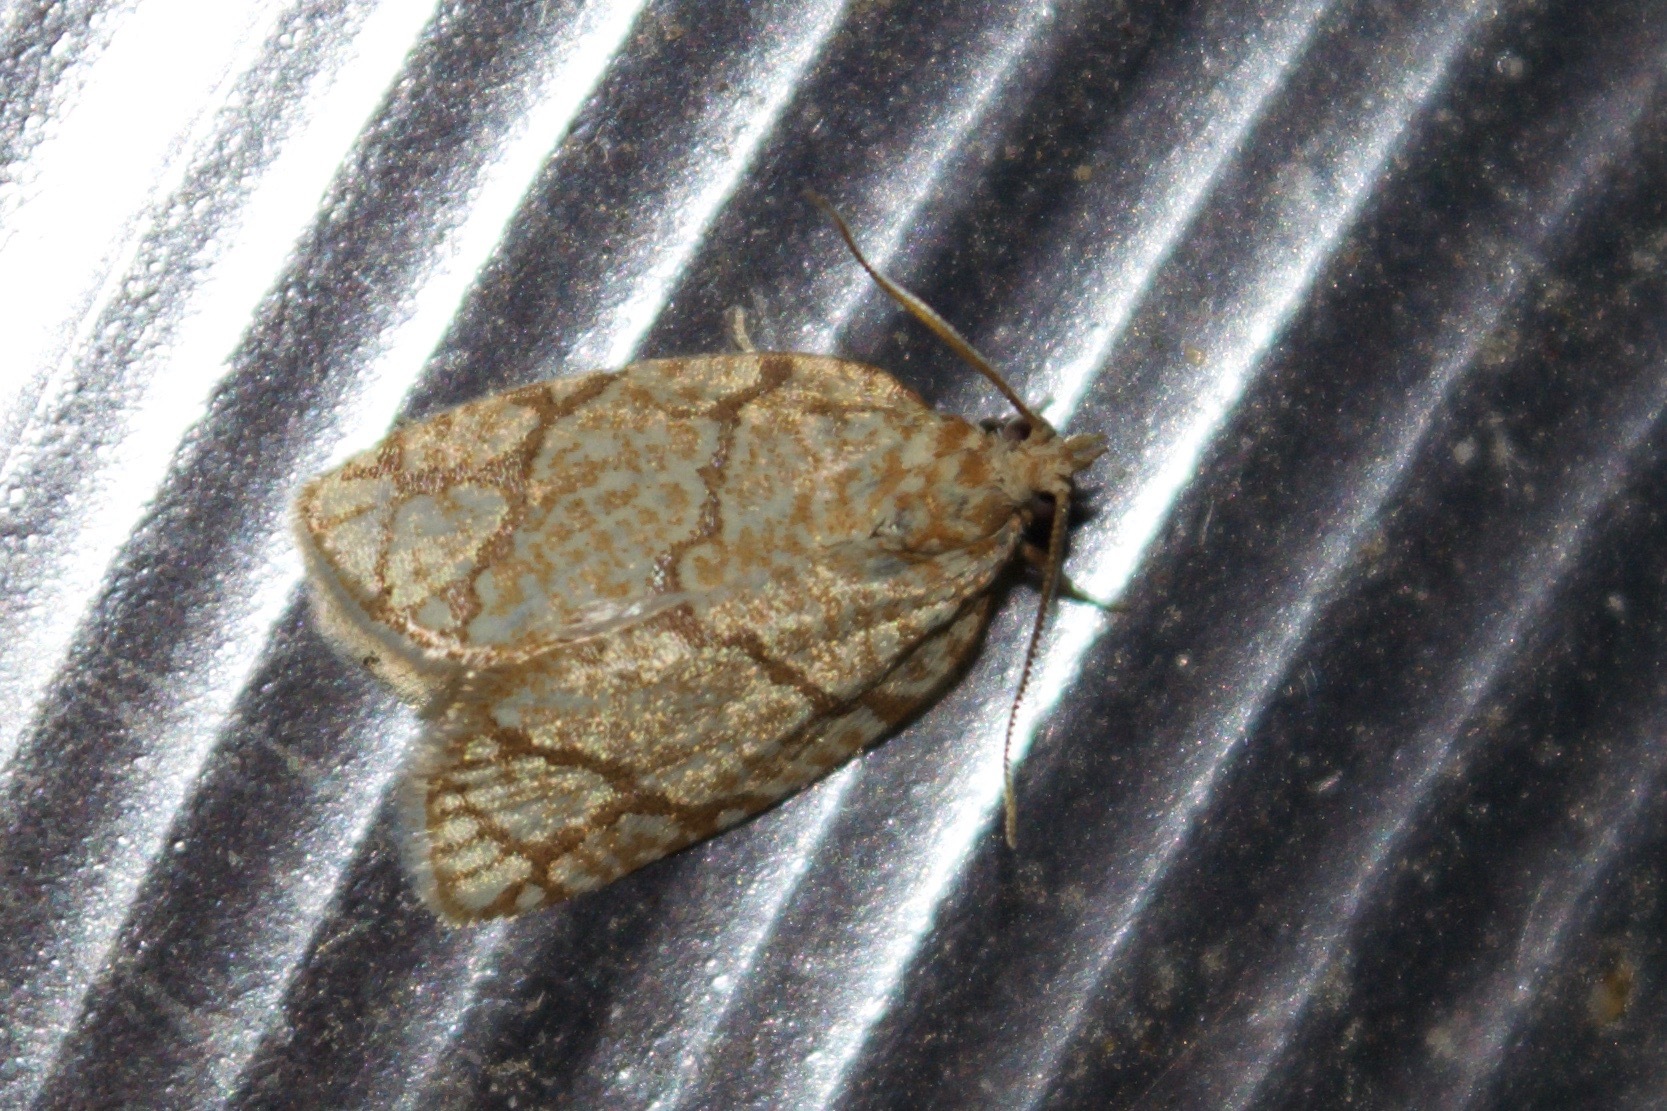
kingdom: Animalia
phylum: Arthropoda
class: Insecta
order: Lepidoptera
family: Tortricidae
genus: Argyrotaenia
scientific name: Argyrotaenia quercifoliana
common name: Yellow-winged oak leafroller moth
